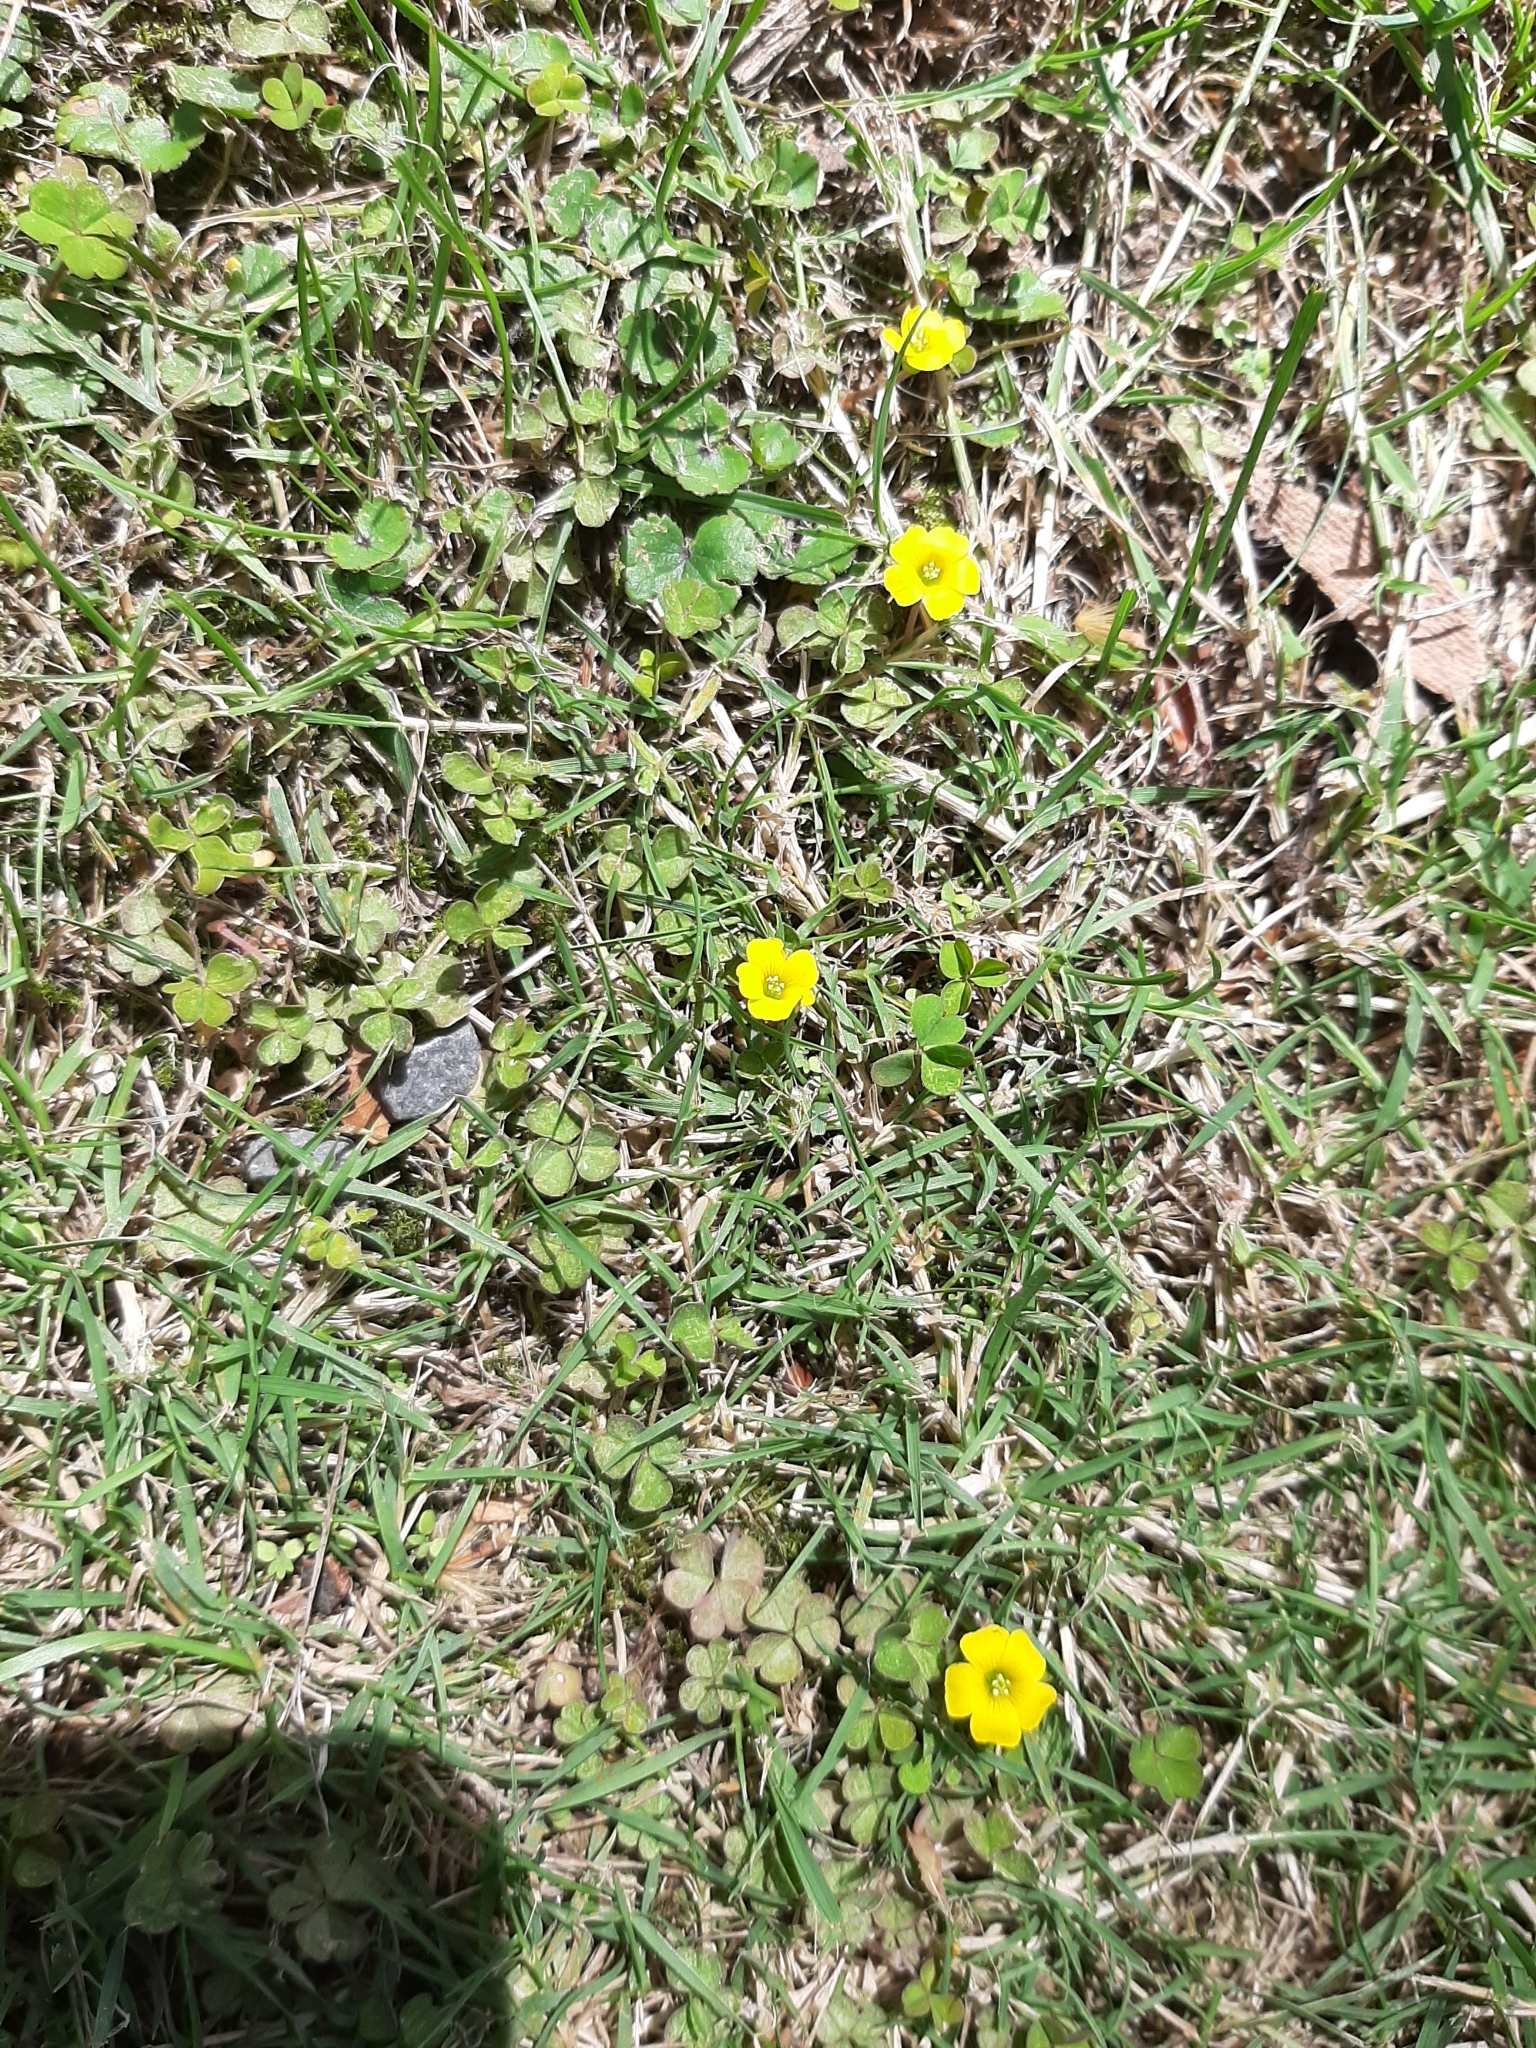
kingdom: Plantae
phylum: Tracheophyta
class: Magnoliopsida
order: Oxalidales
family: Oxalidaceae
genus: Oxalis
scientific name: Oxalis exilis
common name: Least yellow-sorrel
